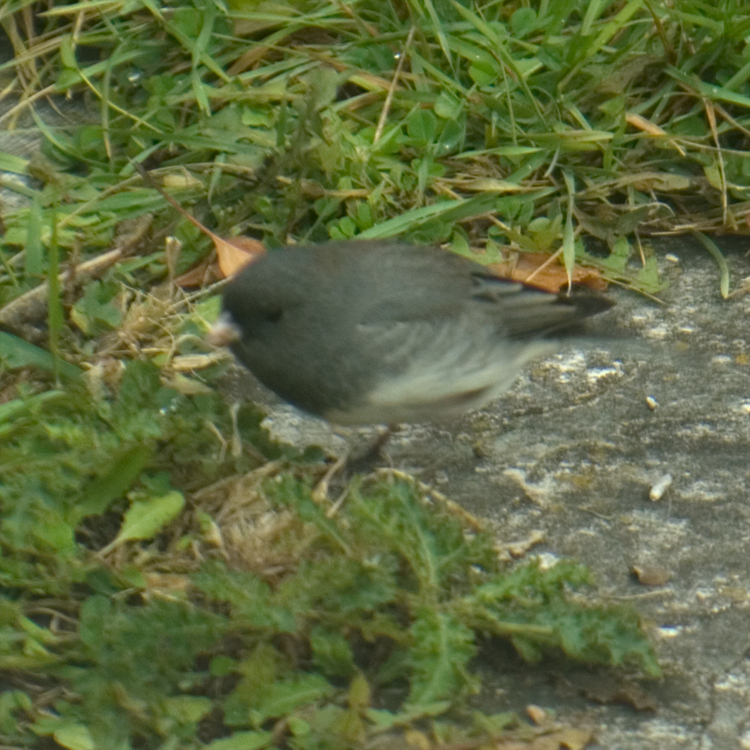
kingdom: Animalia
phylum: Chordata
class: Aves
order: Passeriformes
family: Passerellidae
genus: Junco
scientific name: Junco hyemalis
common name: Dark-eyed junco
